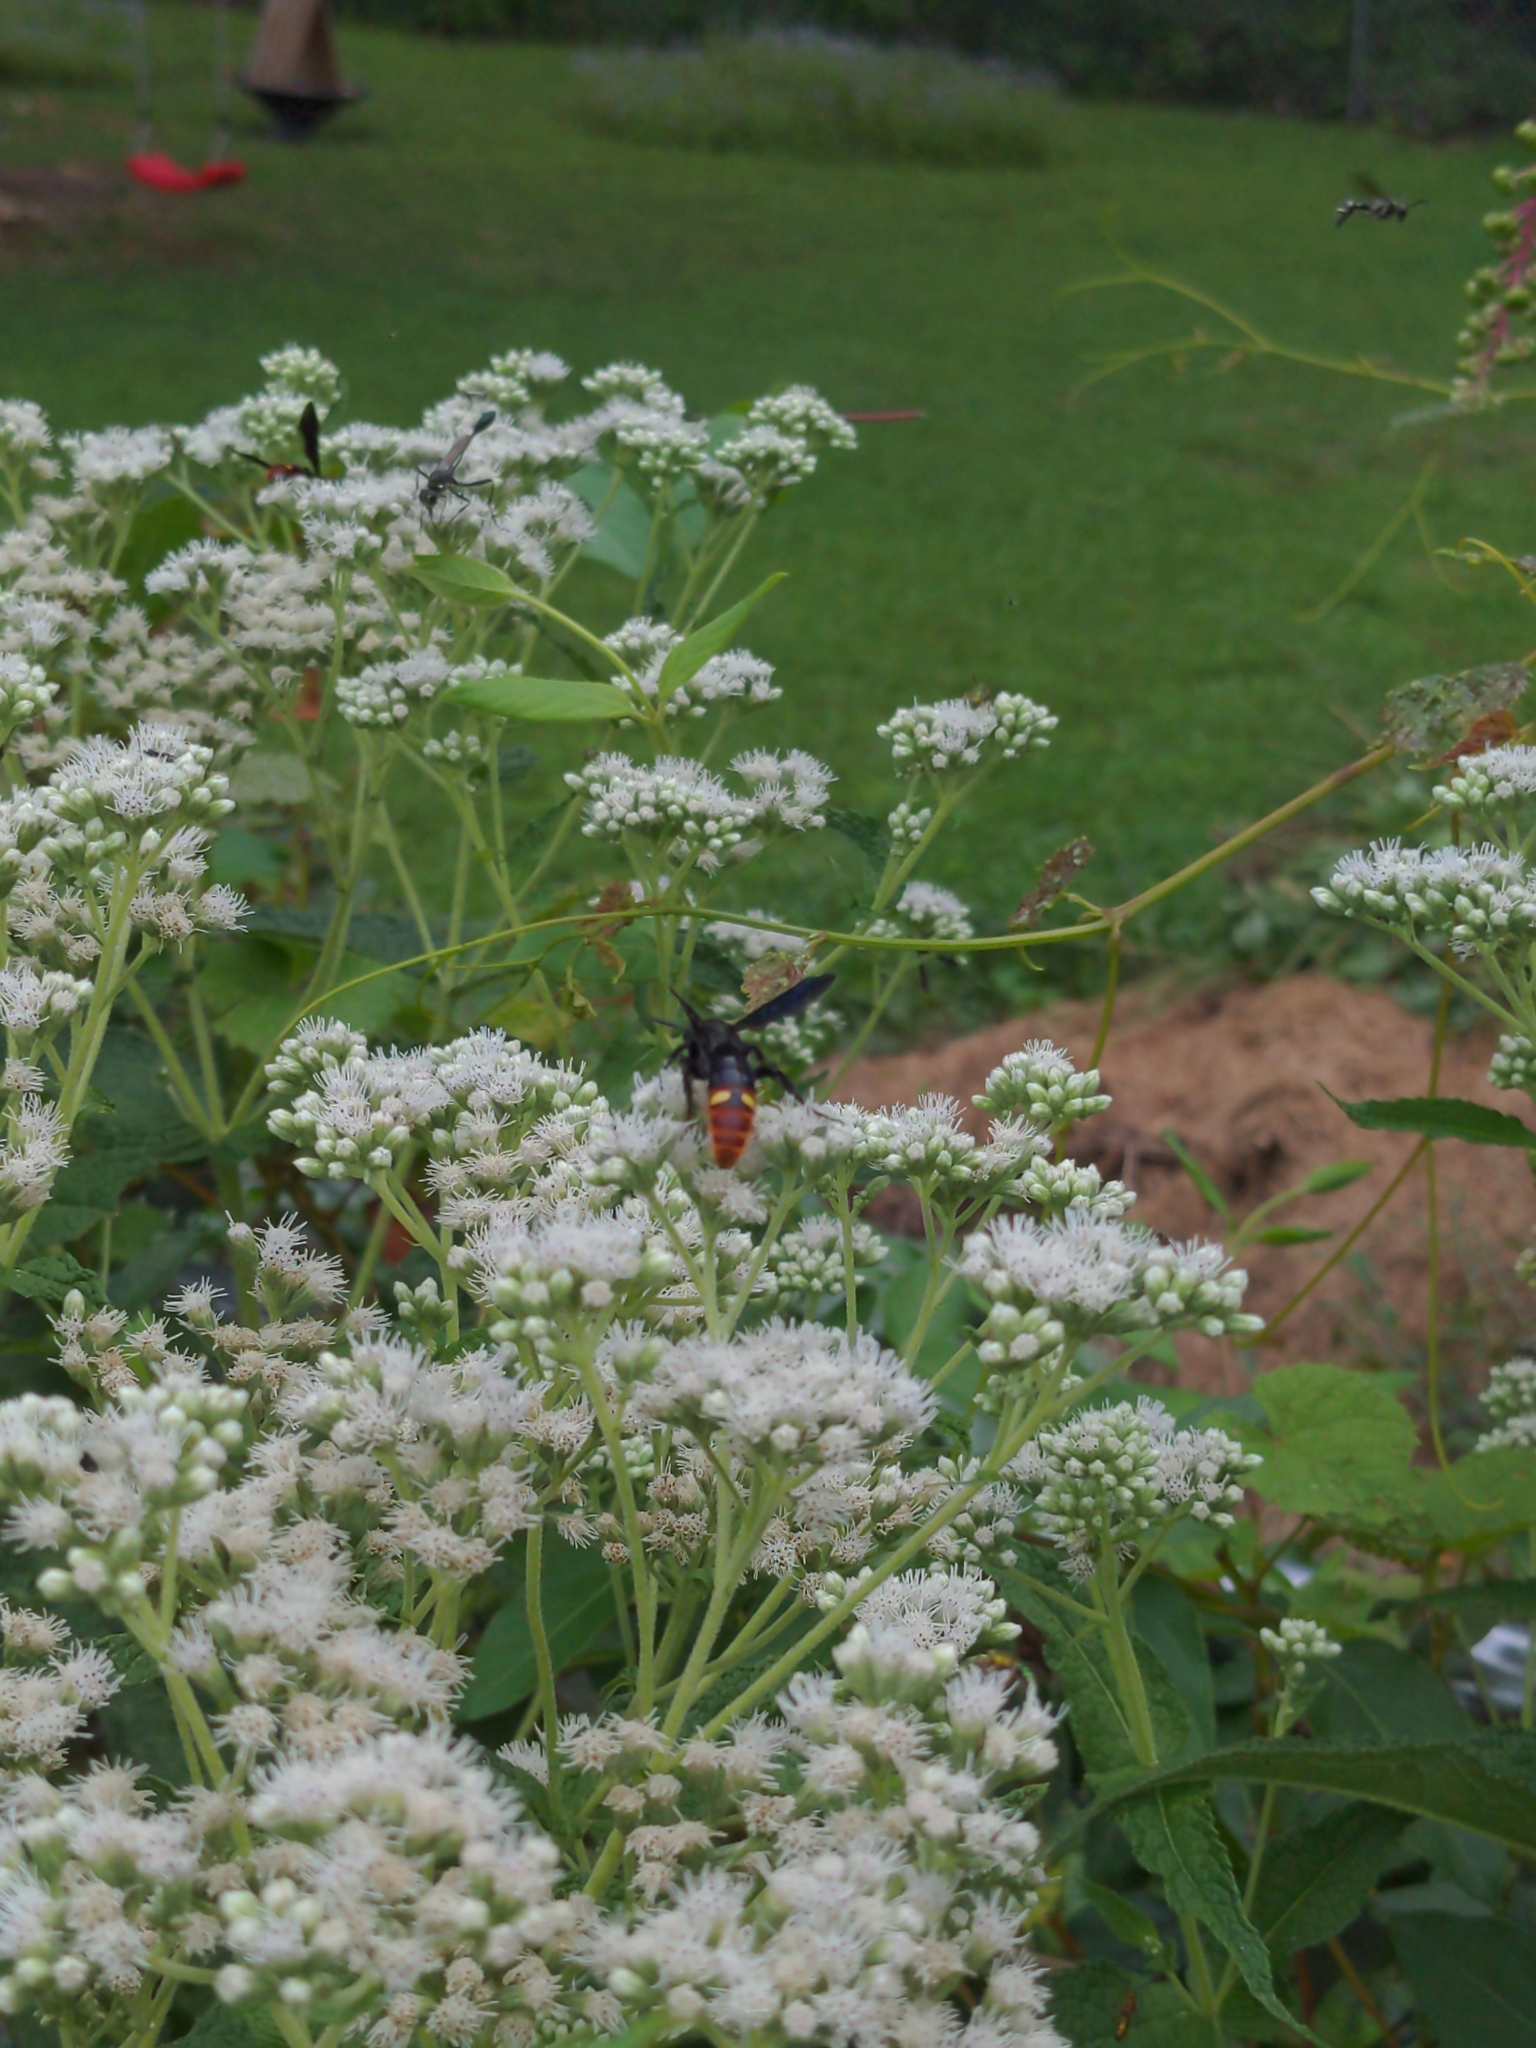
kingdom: Animalia
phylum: Arthropoda
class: Insecta
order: Hymenoptera
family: Scoliidae
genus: Scolia
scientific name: Scolia dubia
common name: Blue-winged scoliid wasp
